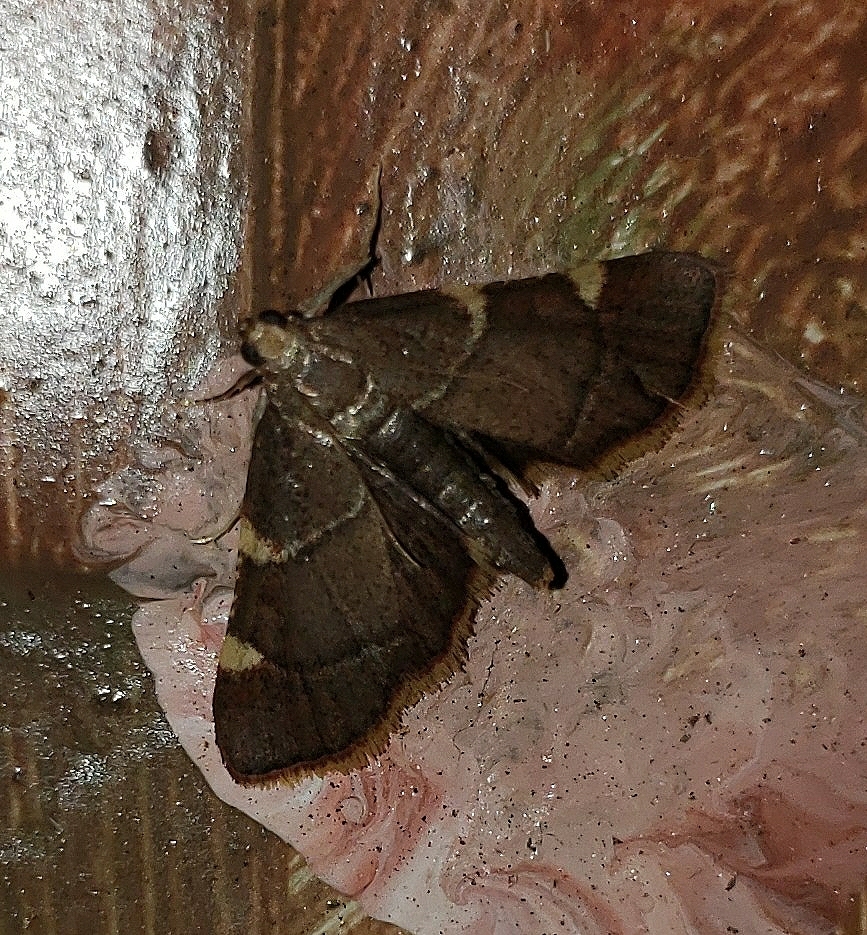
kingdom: Animalia
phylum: Arthropoda
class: Insecta
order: Lepidoptera
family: Pyralidae
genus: Hypsopygia
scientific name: Hypsopygia olinalis
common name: Yellow-fringed dolichomia moth
